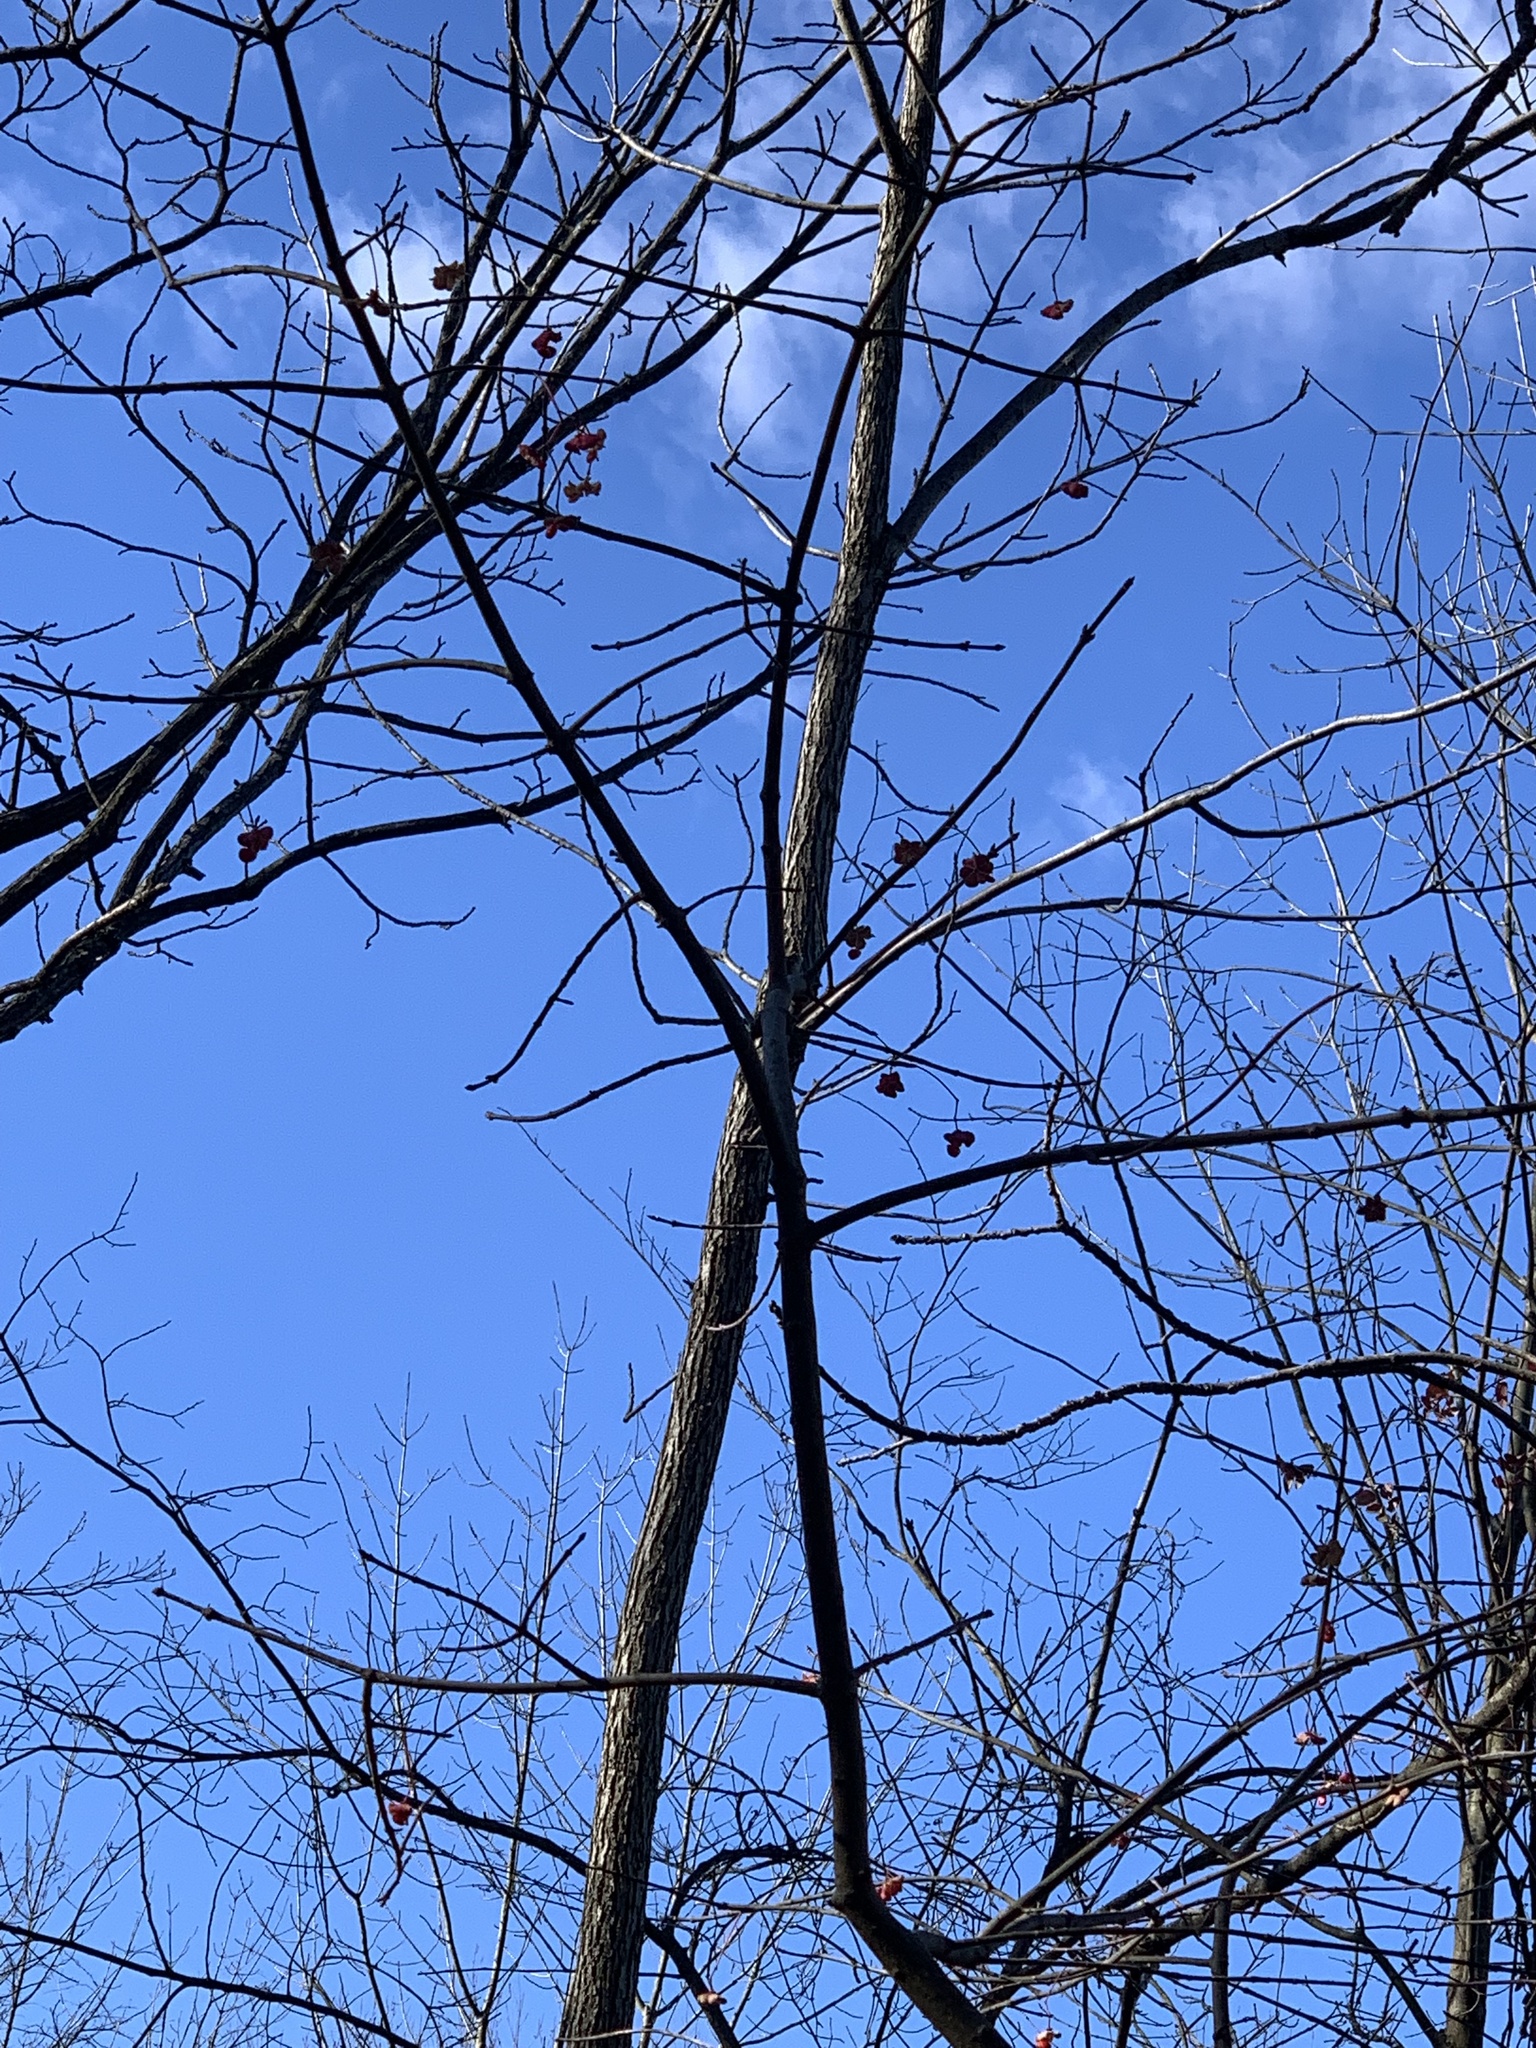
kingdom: Plantae
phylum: Tracheophyta
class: Magnoliopsida
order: Celastrales
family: Celastraceae
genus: Euonymus
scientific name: Euonymus atropurpureus
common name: Eastern wahoo
